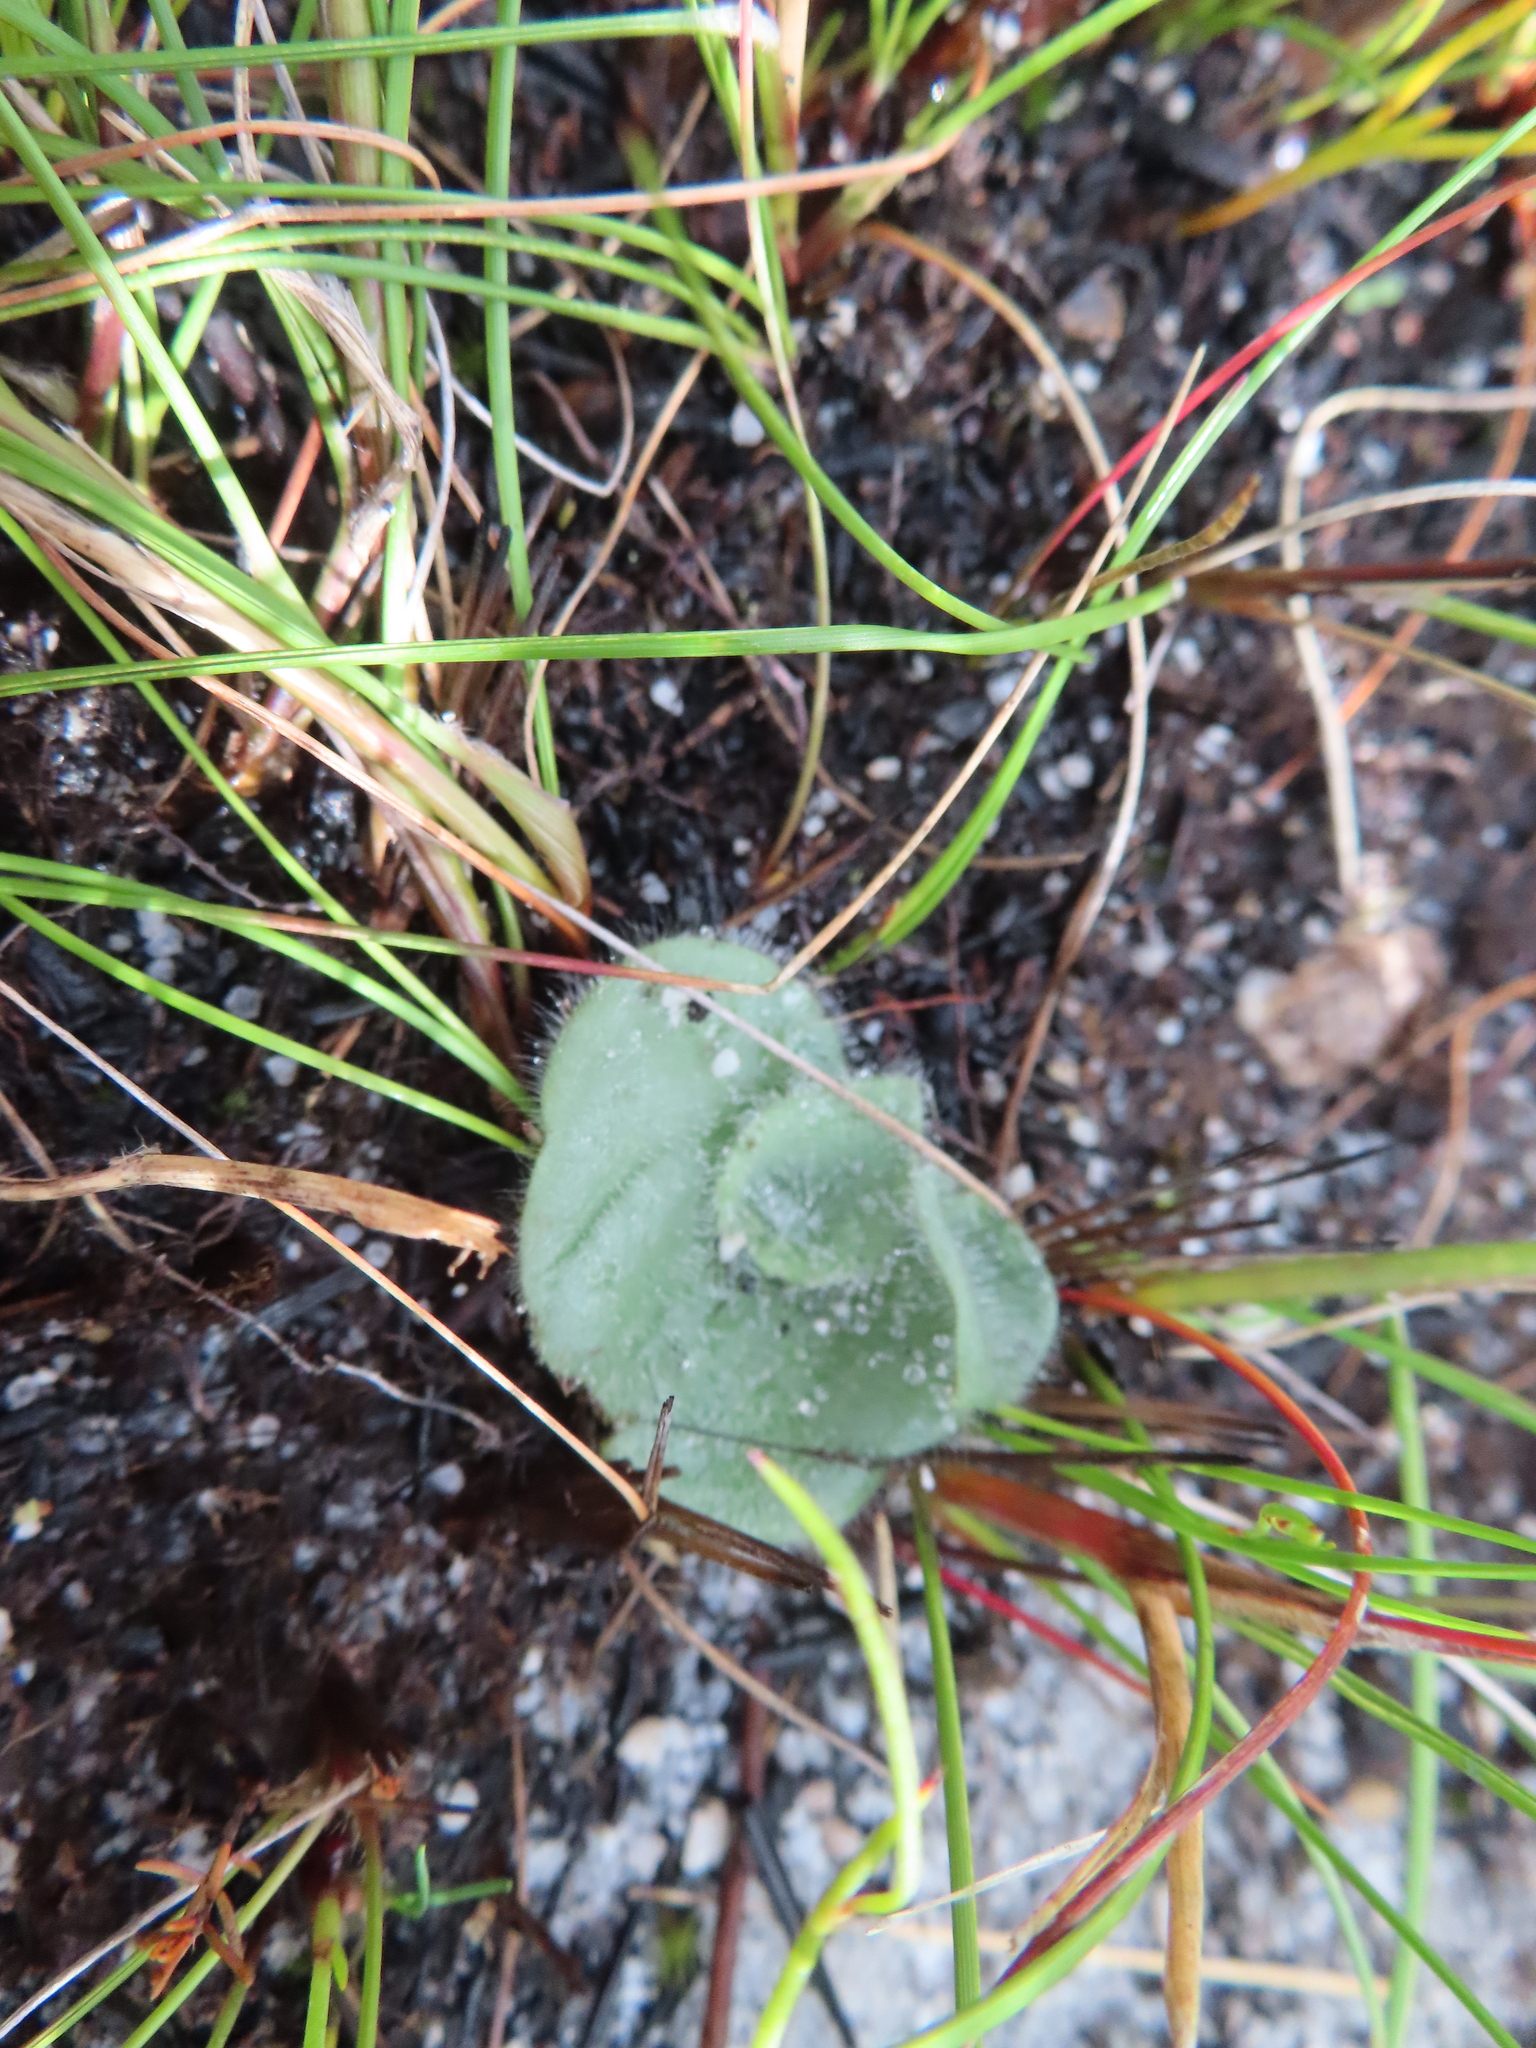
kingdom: Plantae
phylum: Tracheophyta
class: Liliopsida
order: Asparagales
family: Orchidaceae
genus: Holothrix
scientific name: Holothrix villosa
